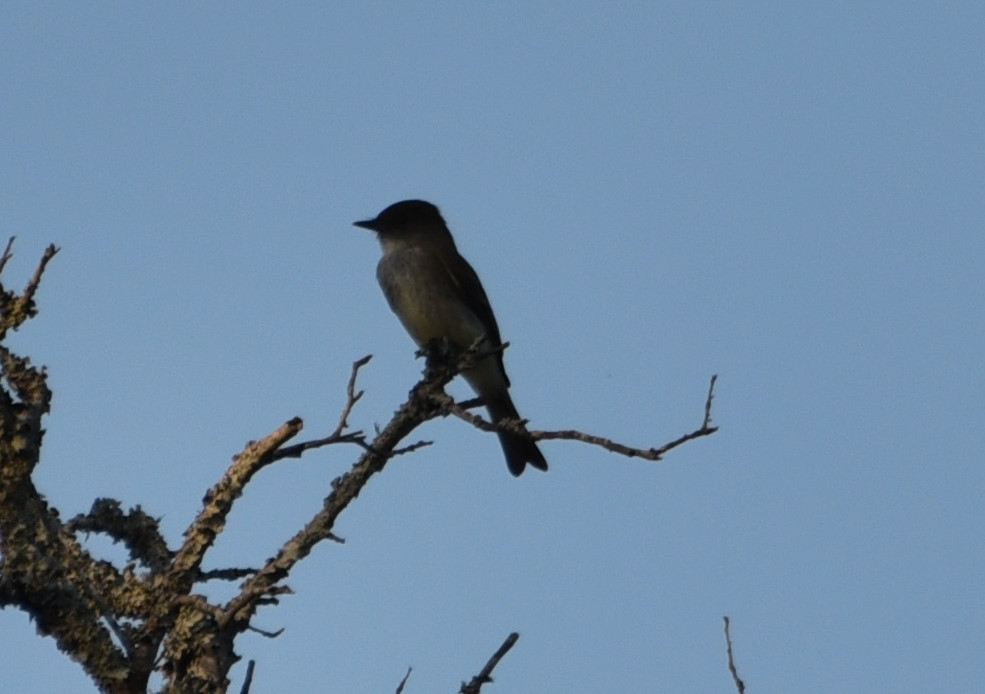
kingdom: Animalia
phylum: Chordata
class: Aves
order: Passeriformes
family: Tyrannidae
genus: Sayornis
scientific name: Sayornis phoebe
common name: Eastern phoebe
